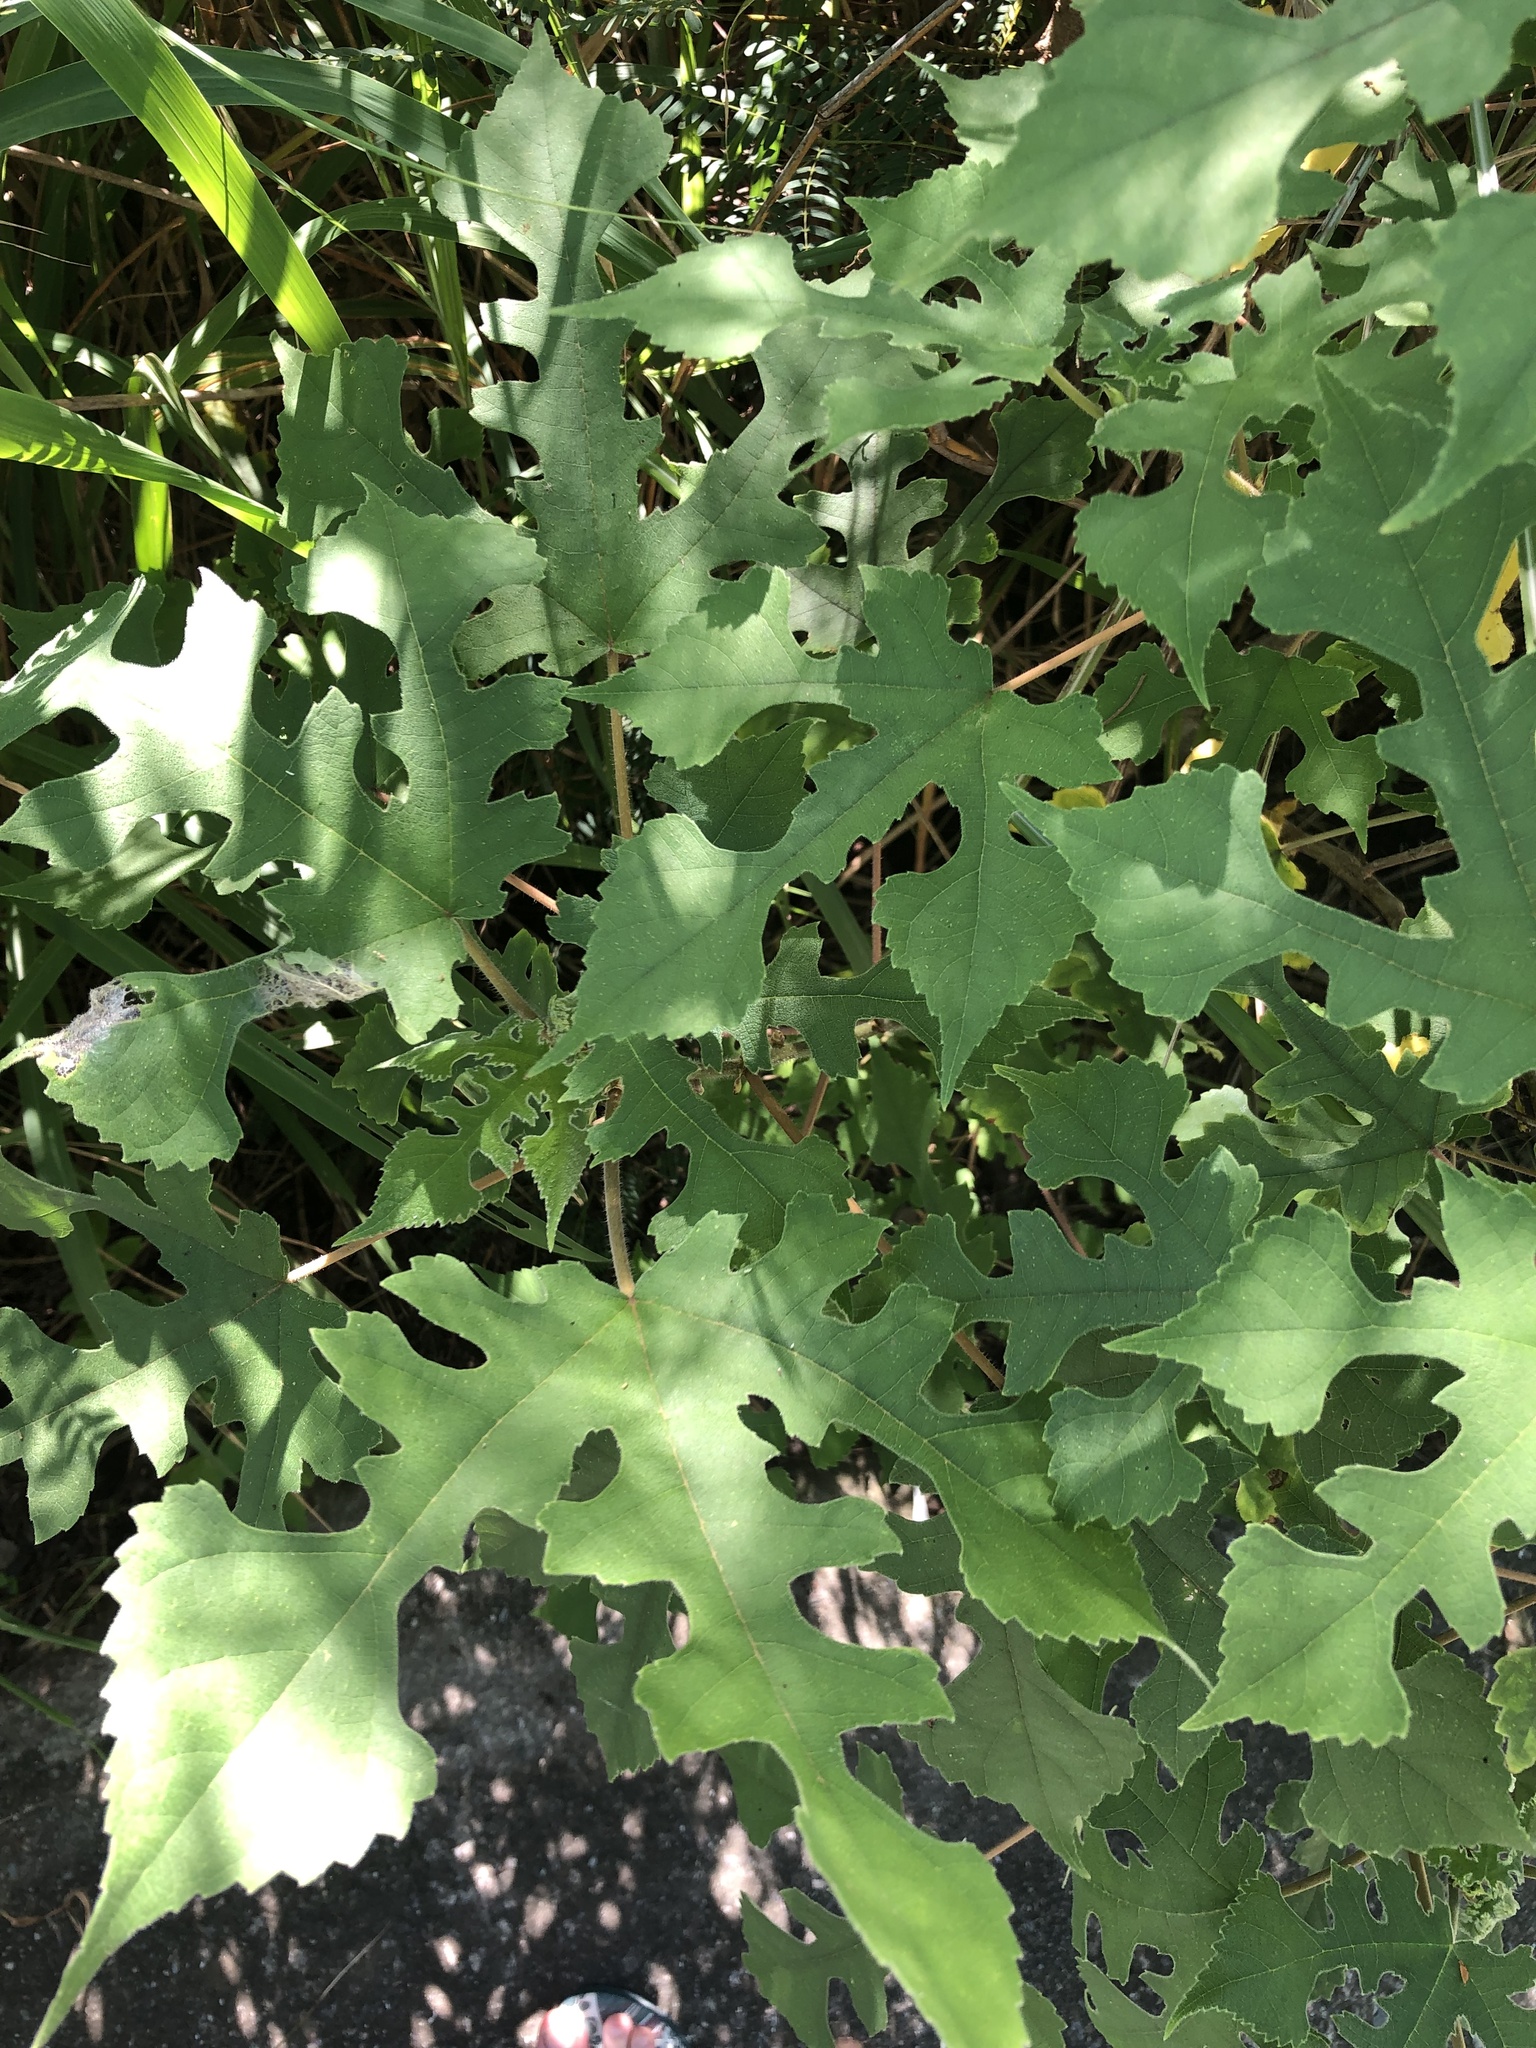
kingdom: Plantae
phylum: Tracheophyta
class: Magnoliopsida
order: Rosales
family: Moraceae
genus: Broussonetia
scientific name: Broussonetia papyrifera
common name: Paper mulberry
